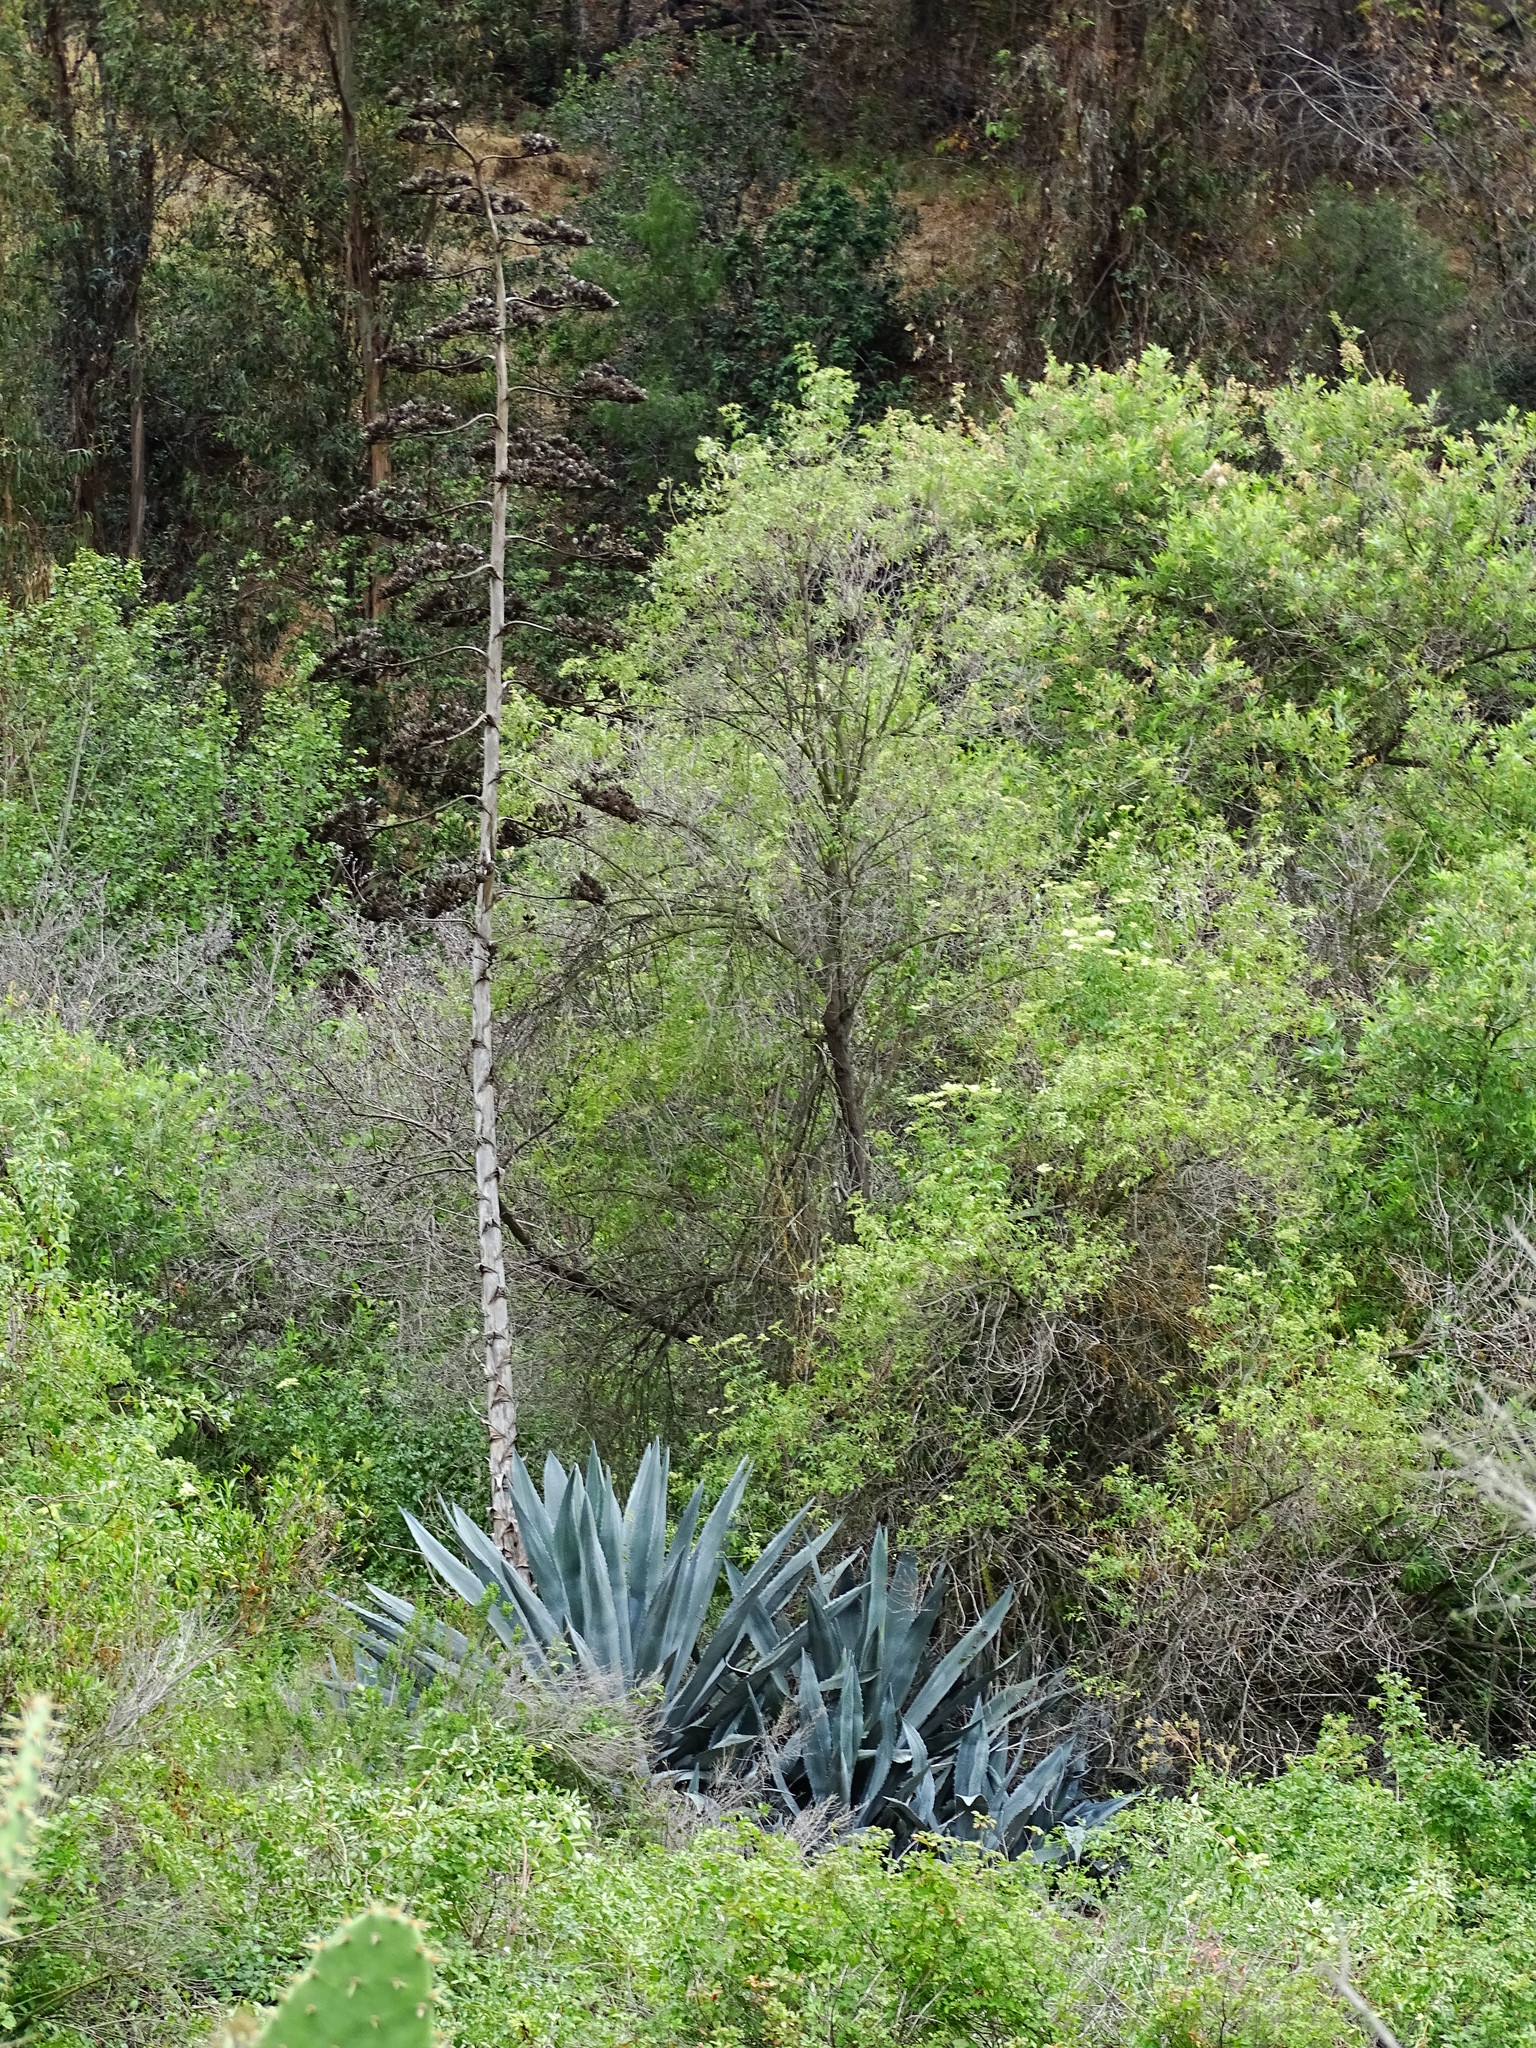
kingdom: Plantae
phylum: Tracheophyta
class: Liliopsida
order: Asparagales
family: Asparagaceae
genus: Agave
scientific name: Agave americana
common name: Centuryplant
